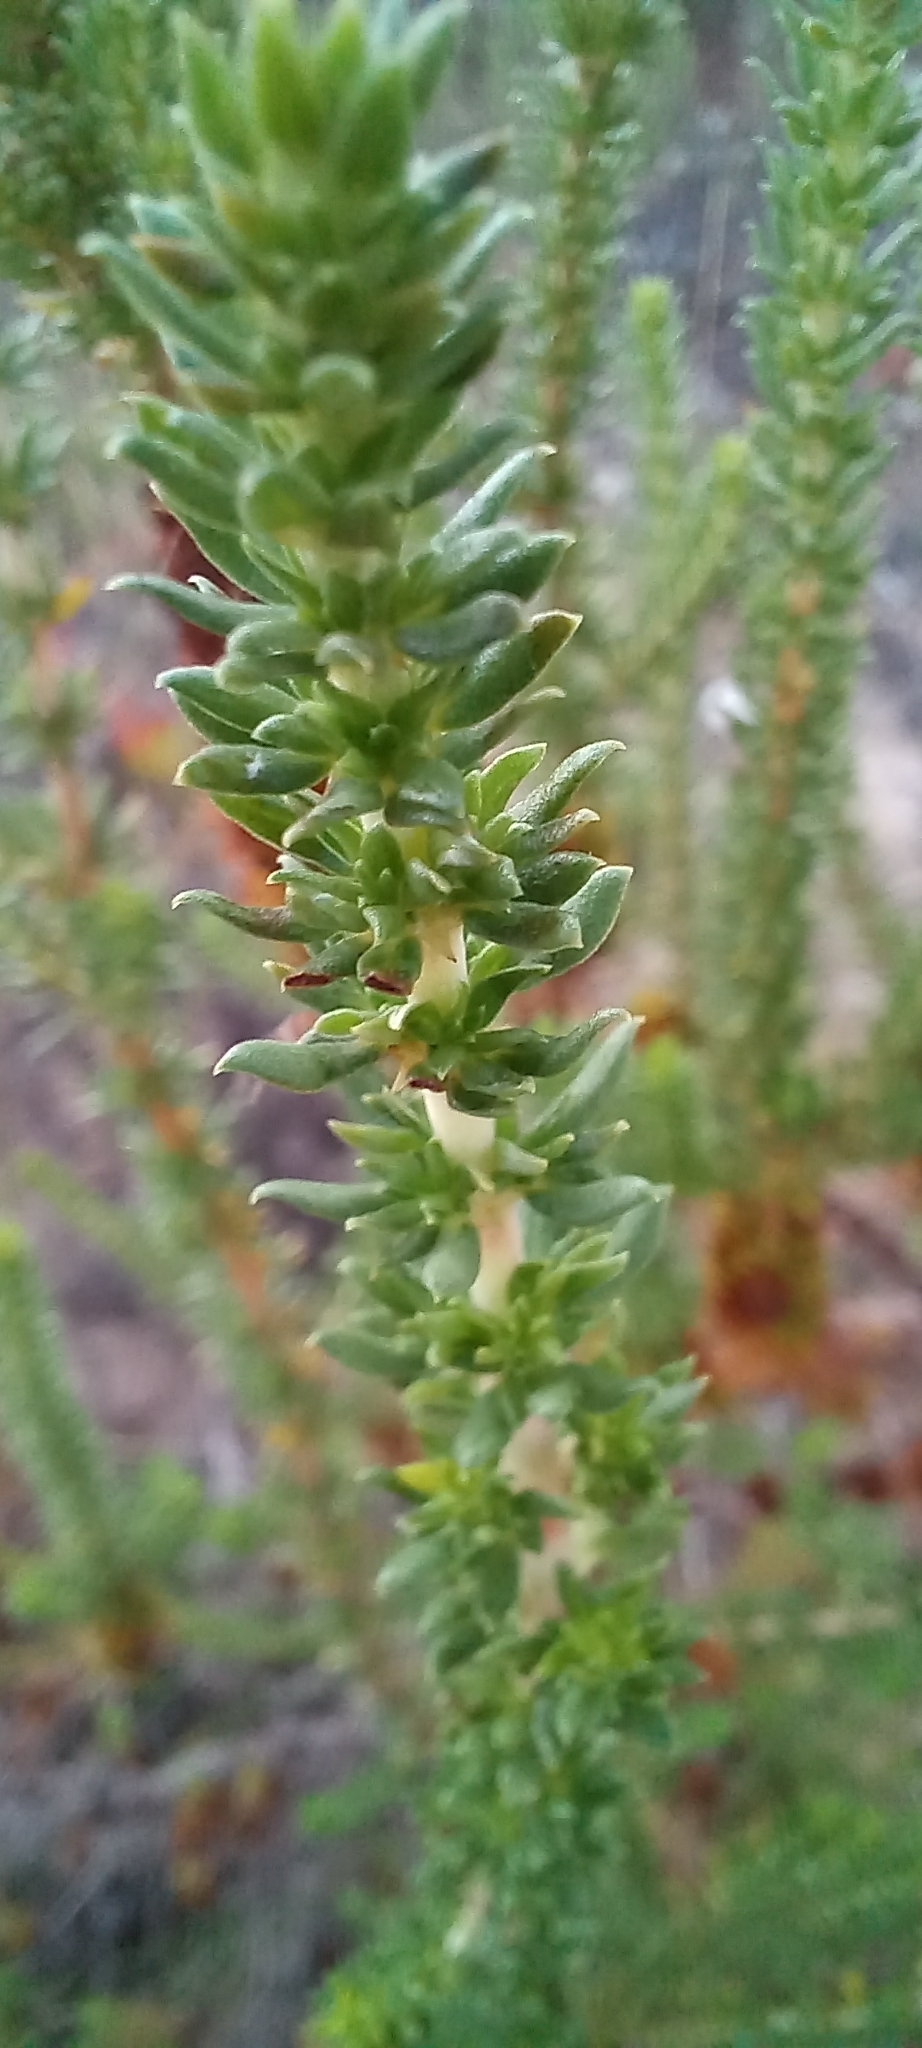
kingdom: Plantae
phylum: Tracheophyta
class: Magnoliopsida
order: Gentianales
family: Rubiaceae
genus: Anthospermum
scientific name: Anthospermum aethiopicum
